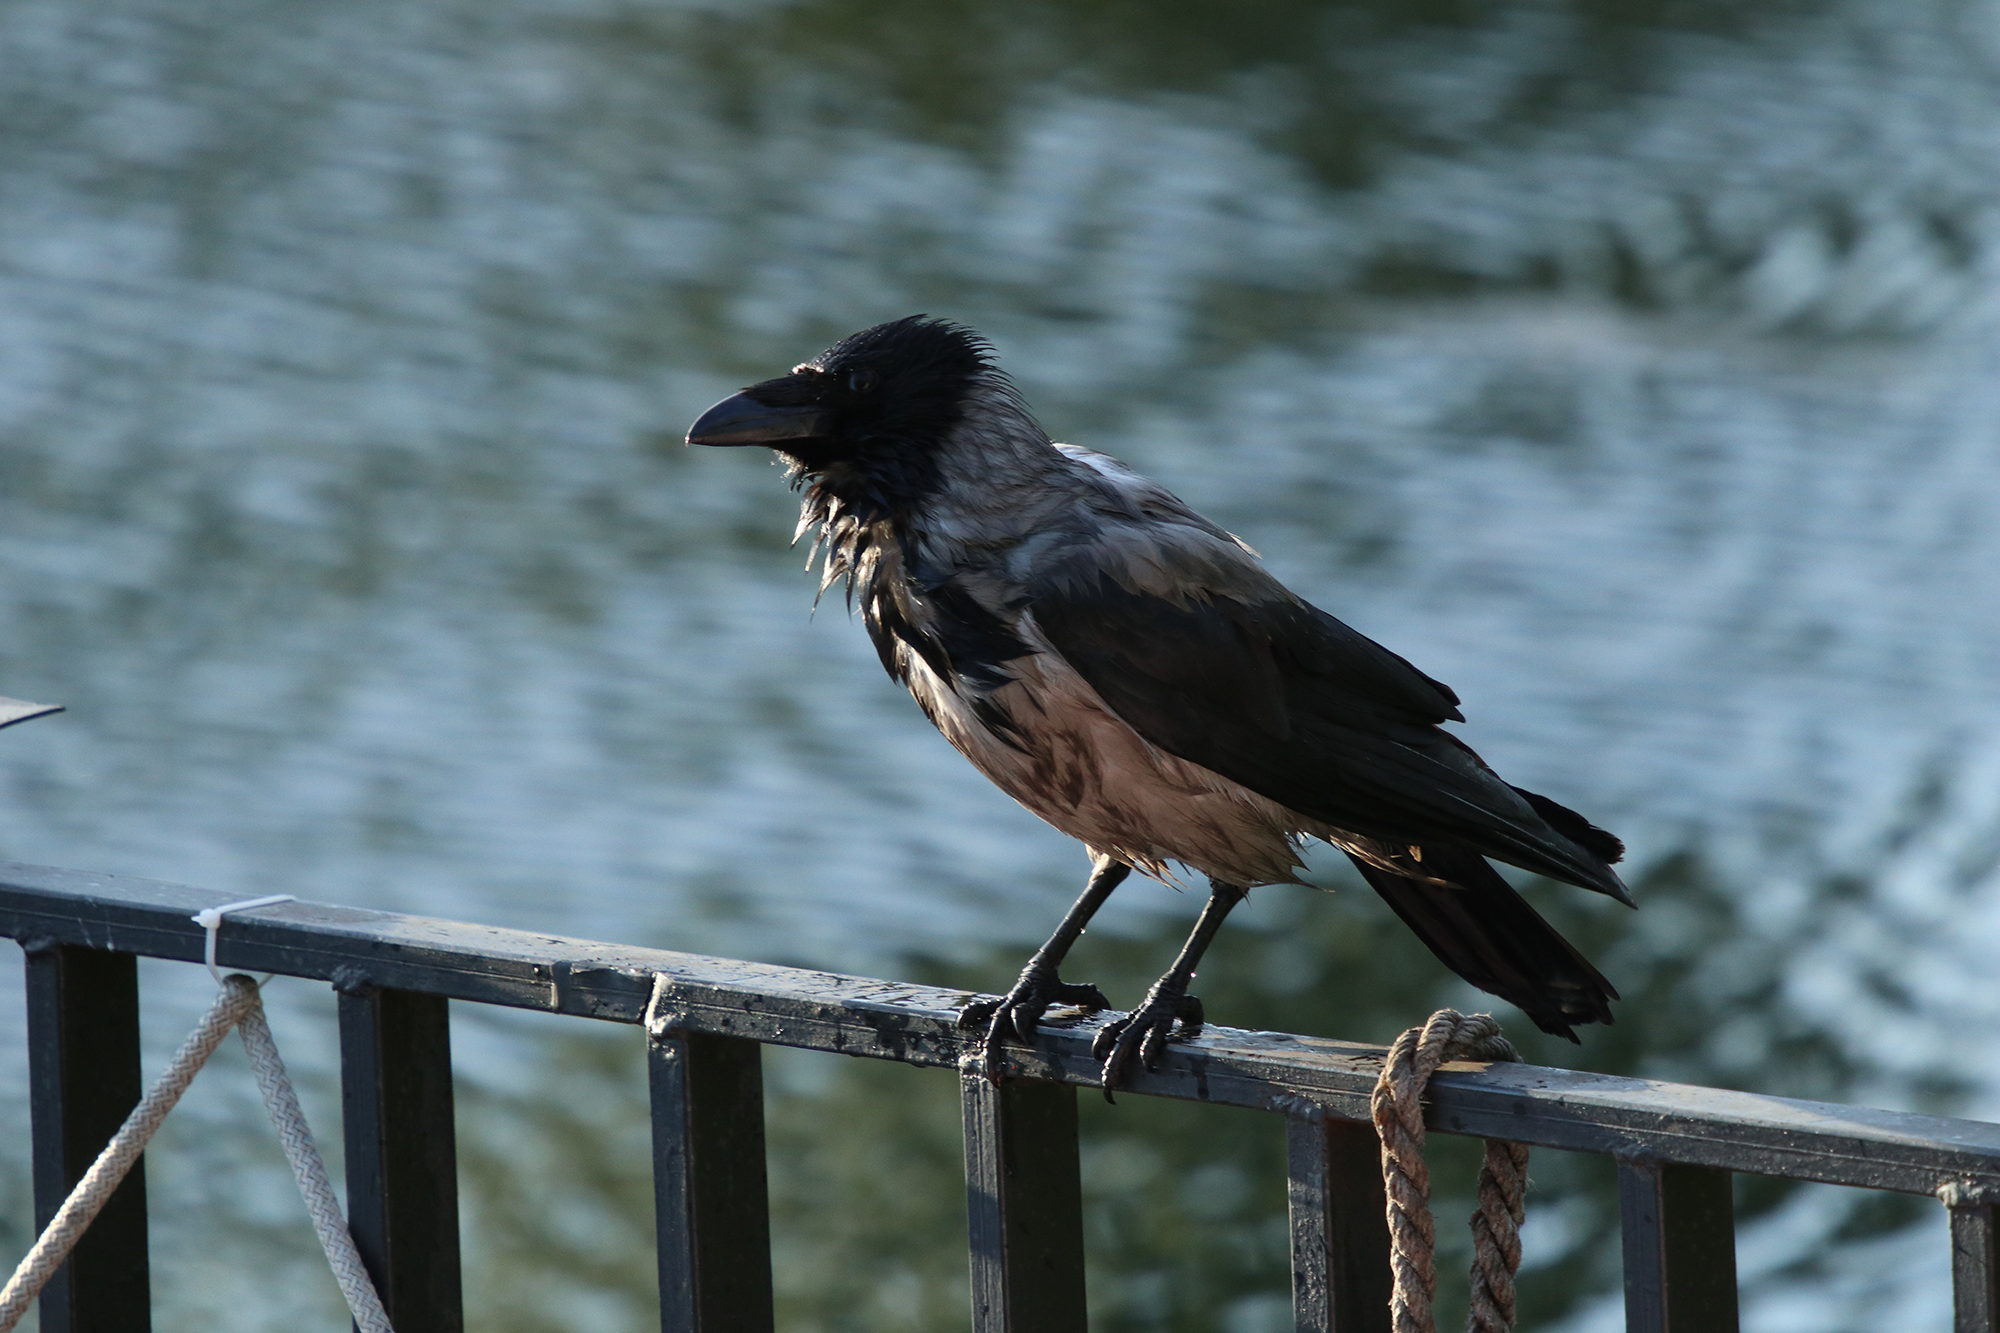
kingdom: Animalia
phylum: Chordata
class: Aves
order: Passeriformes
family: Corvidae
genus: Corvus
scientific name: Corvus cornix
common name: Hooded crow
